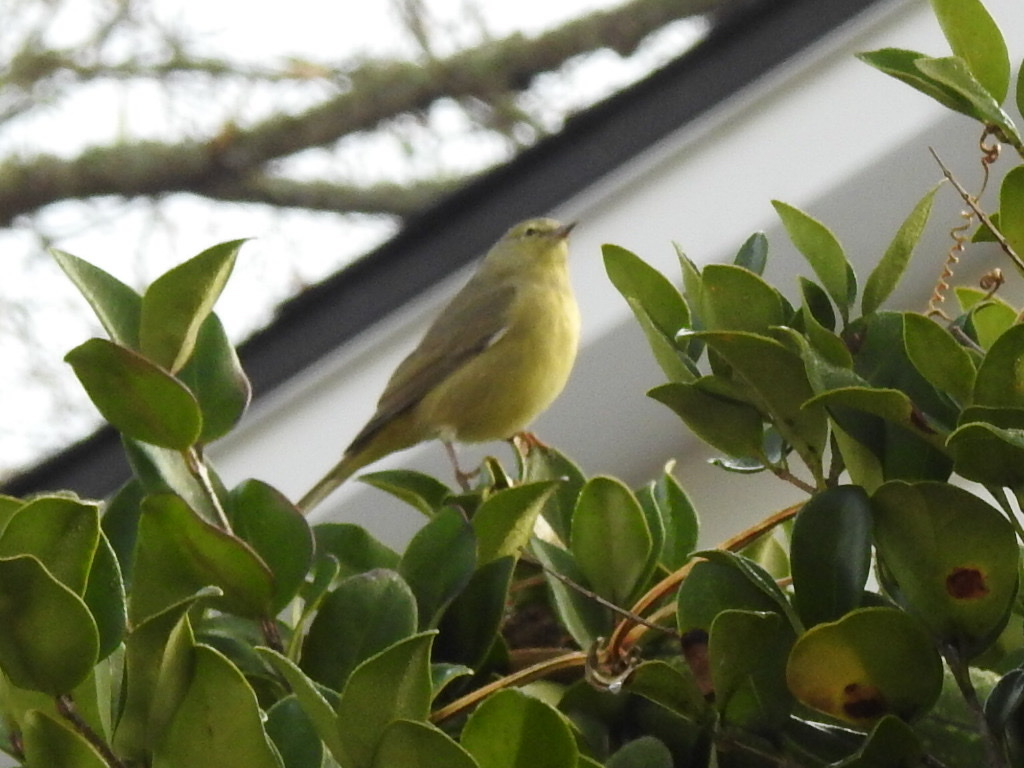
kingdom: Animalia
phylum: Chordata
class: Aves
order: Passeriformes
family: Parulidae
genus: Leiothlypis
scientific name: Leiothlypis celata
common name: Orange-crowned warbler
